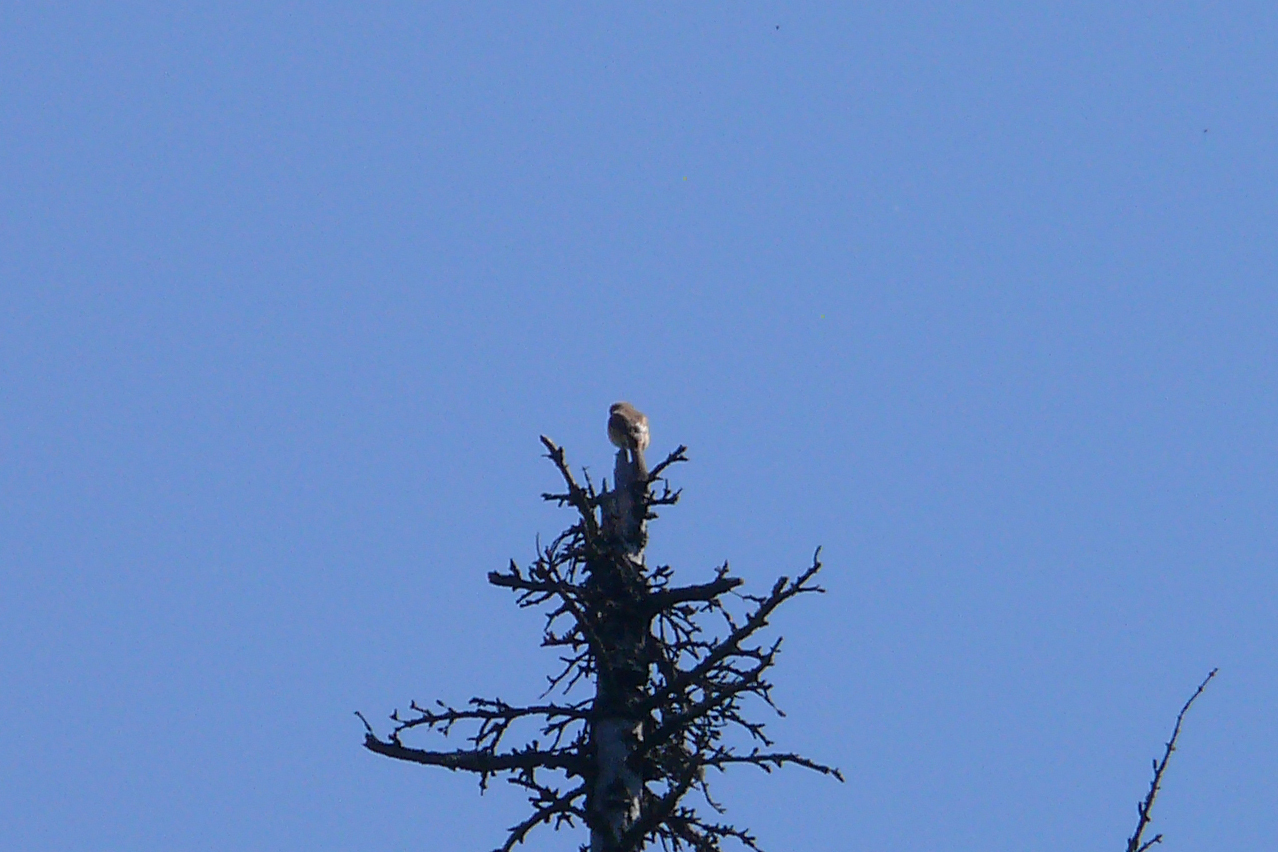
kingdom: Animalia
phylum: Chordata
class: Aves
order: Passeriformes
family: Laniidae
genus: Lanius
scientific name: Lanius cristatus
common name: Brown shrike
